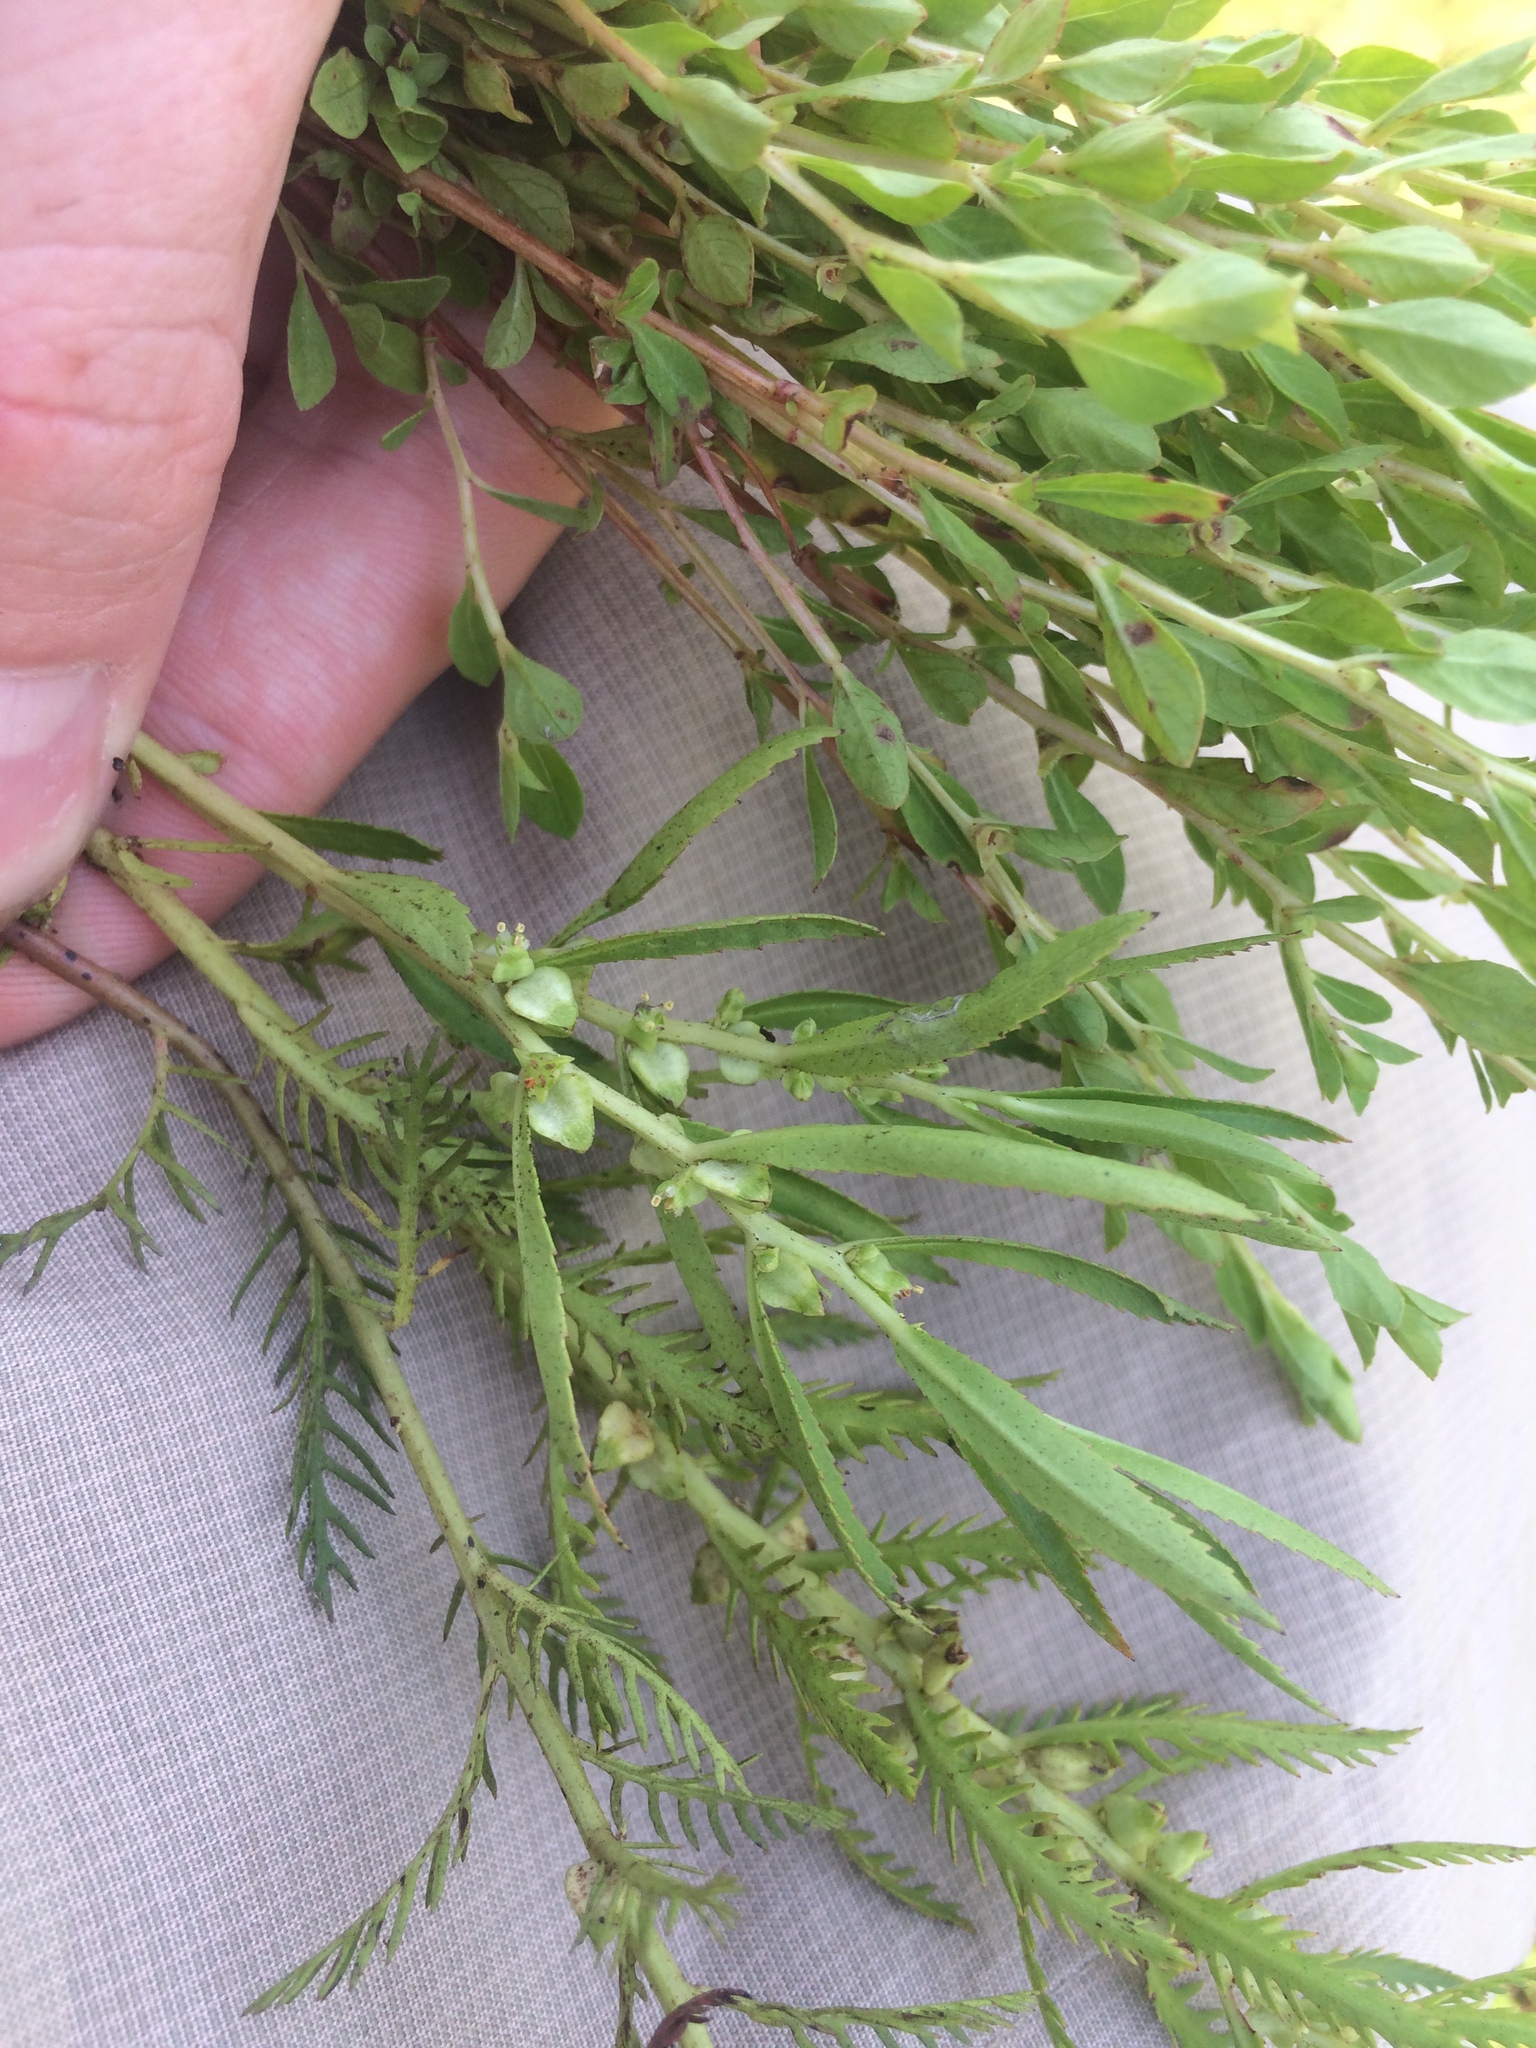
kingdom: Plantae
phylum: Tracheophyta
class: Magnoliopsida
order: Saxifragales
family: Haloragaceae
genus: Proserpinaca
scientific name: Proserpinaca palustris
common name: Marsh mermaidweed
